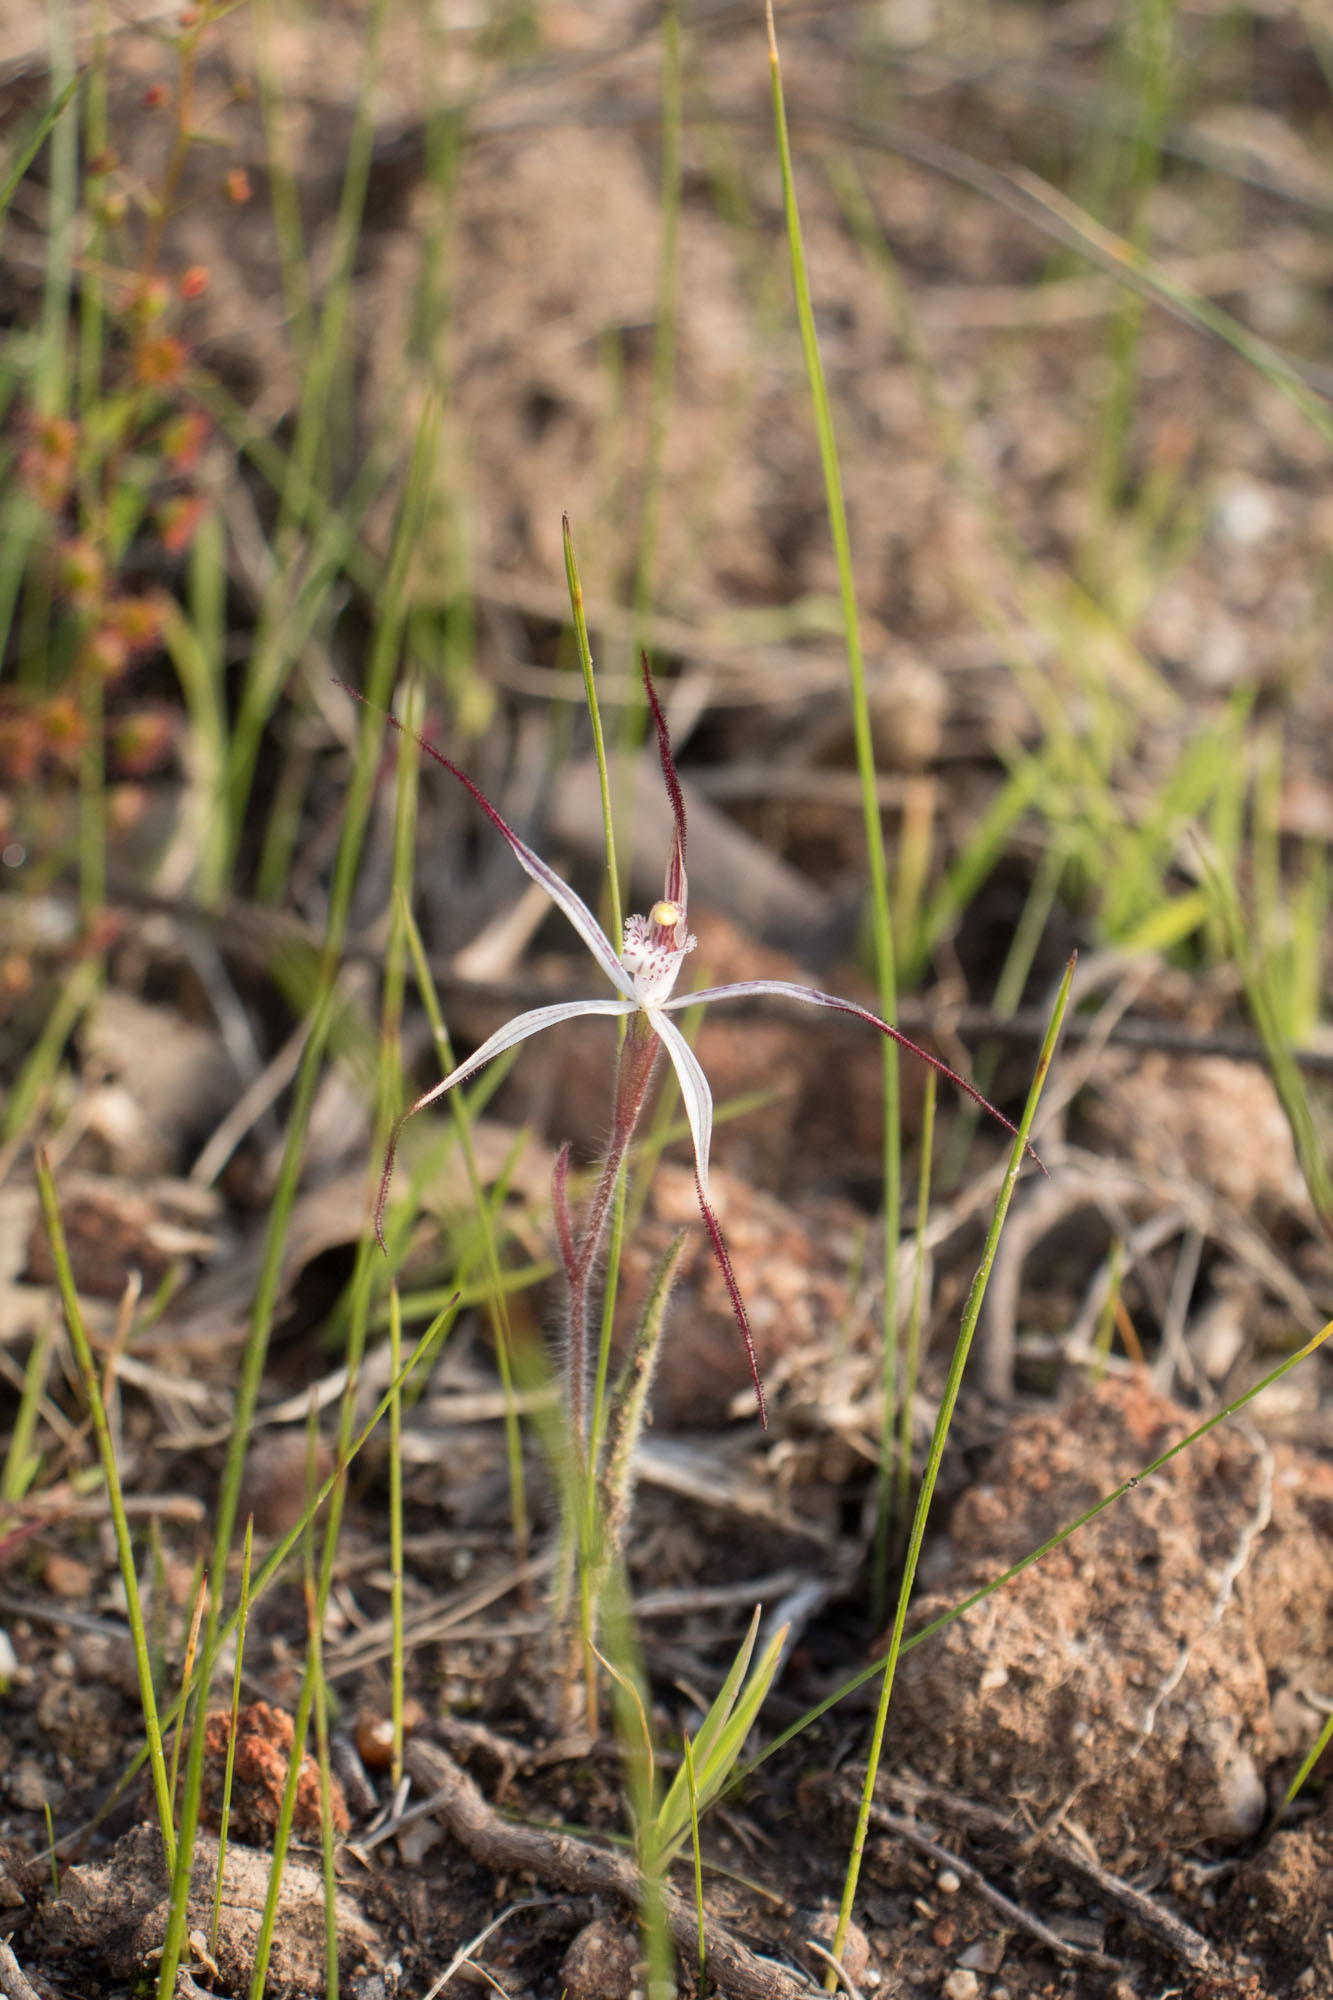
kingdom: Plantae
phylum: Tracheophyta
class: Liliopsida
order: Asparagales
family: Orchidaceae
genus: Caladenia
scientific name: Caladenia hiemalis
